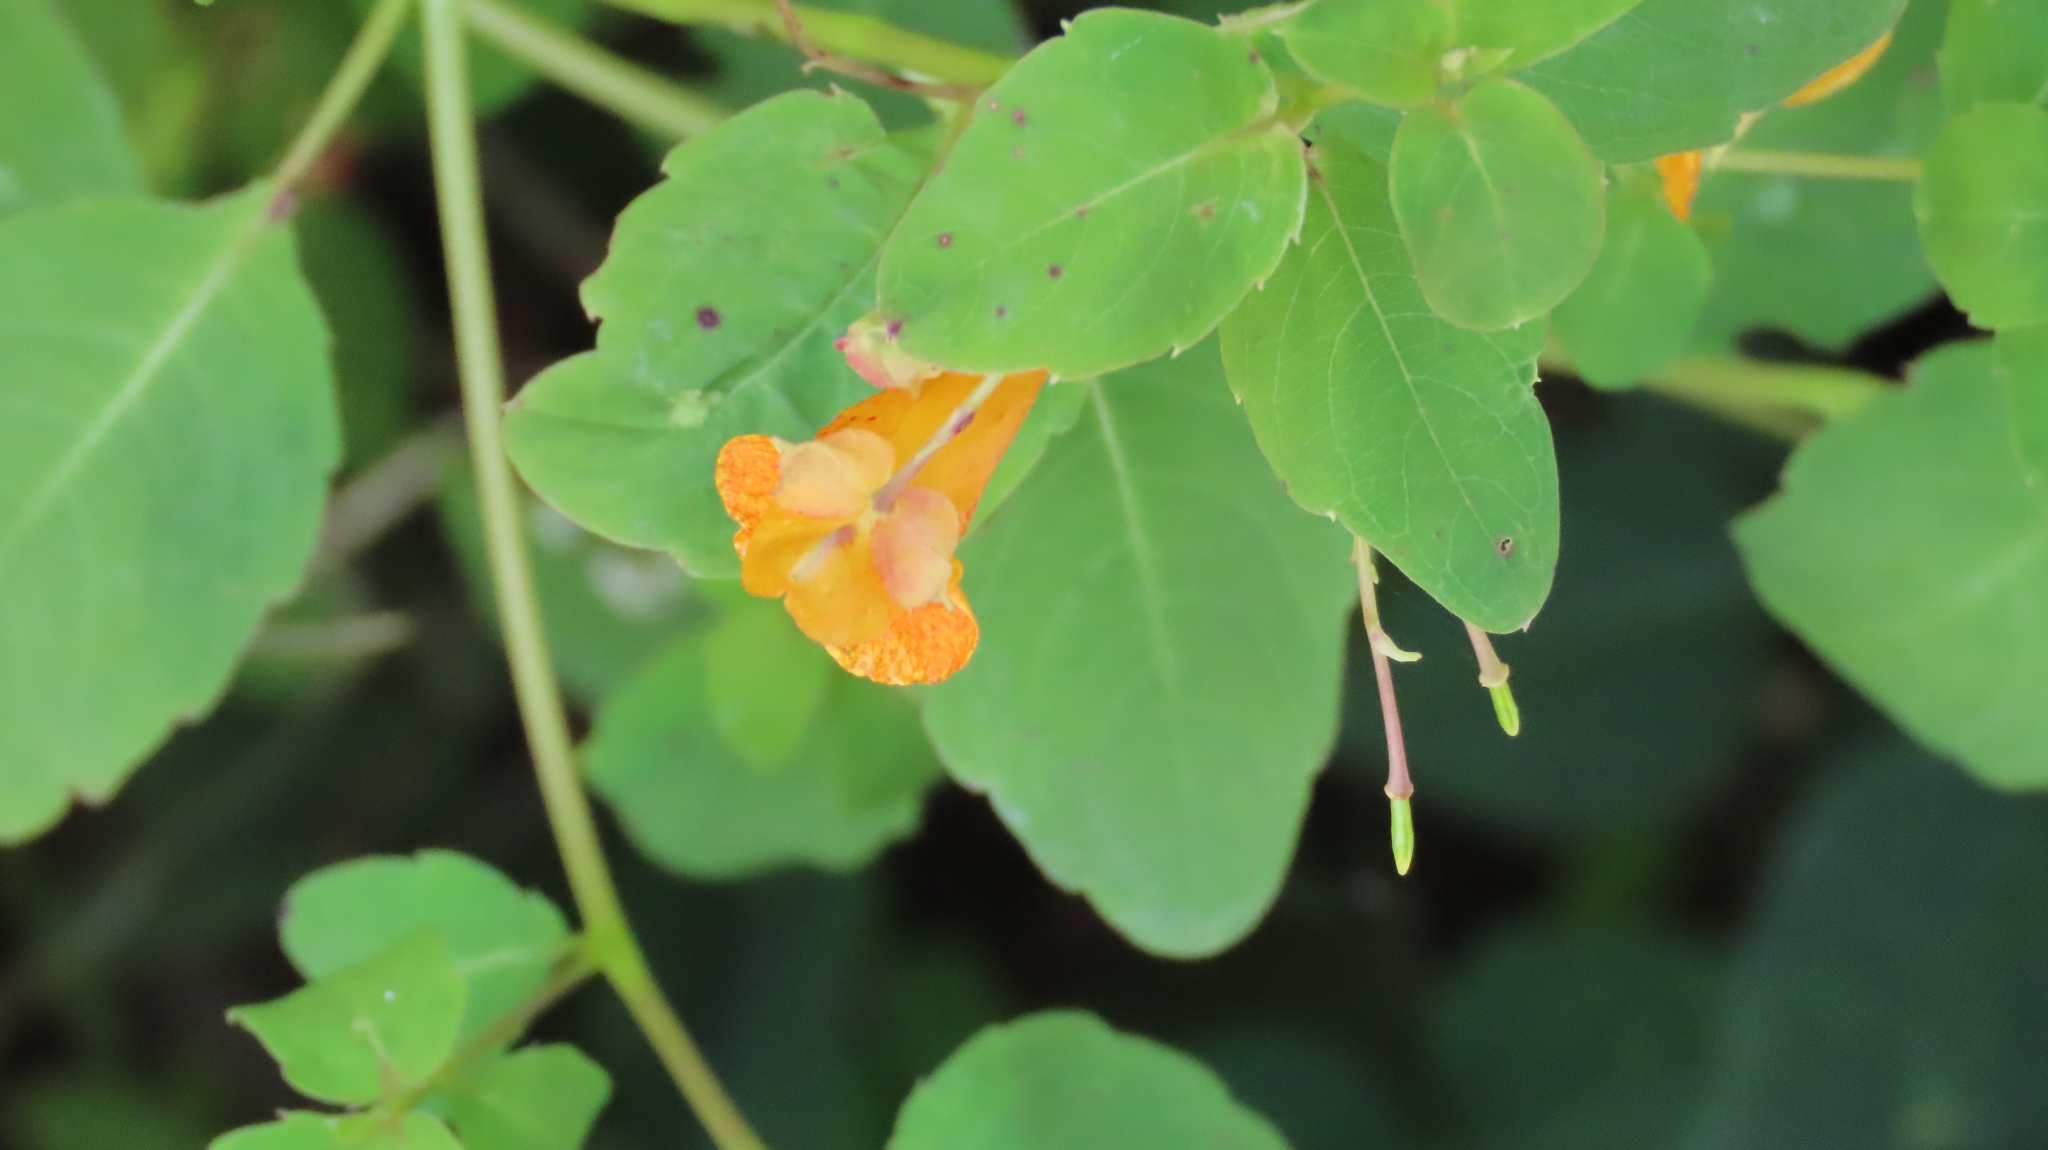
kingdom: Plantae
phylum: Tracheophyta
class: Magnoliopsida
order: Ericales
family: Balsaminaceae
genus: Impatiens
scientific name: Impatiens capensis
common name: Orange balsam
